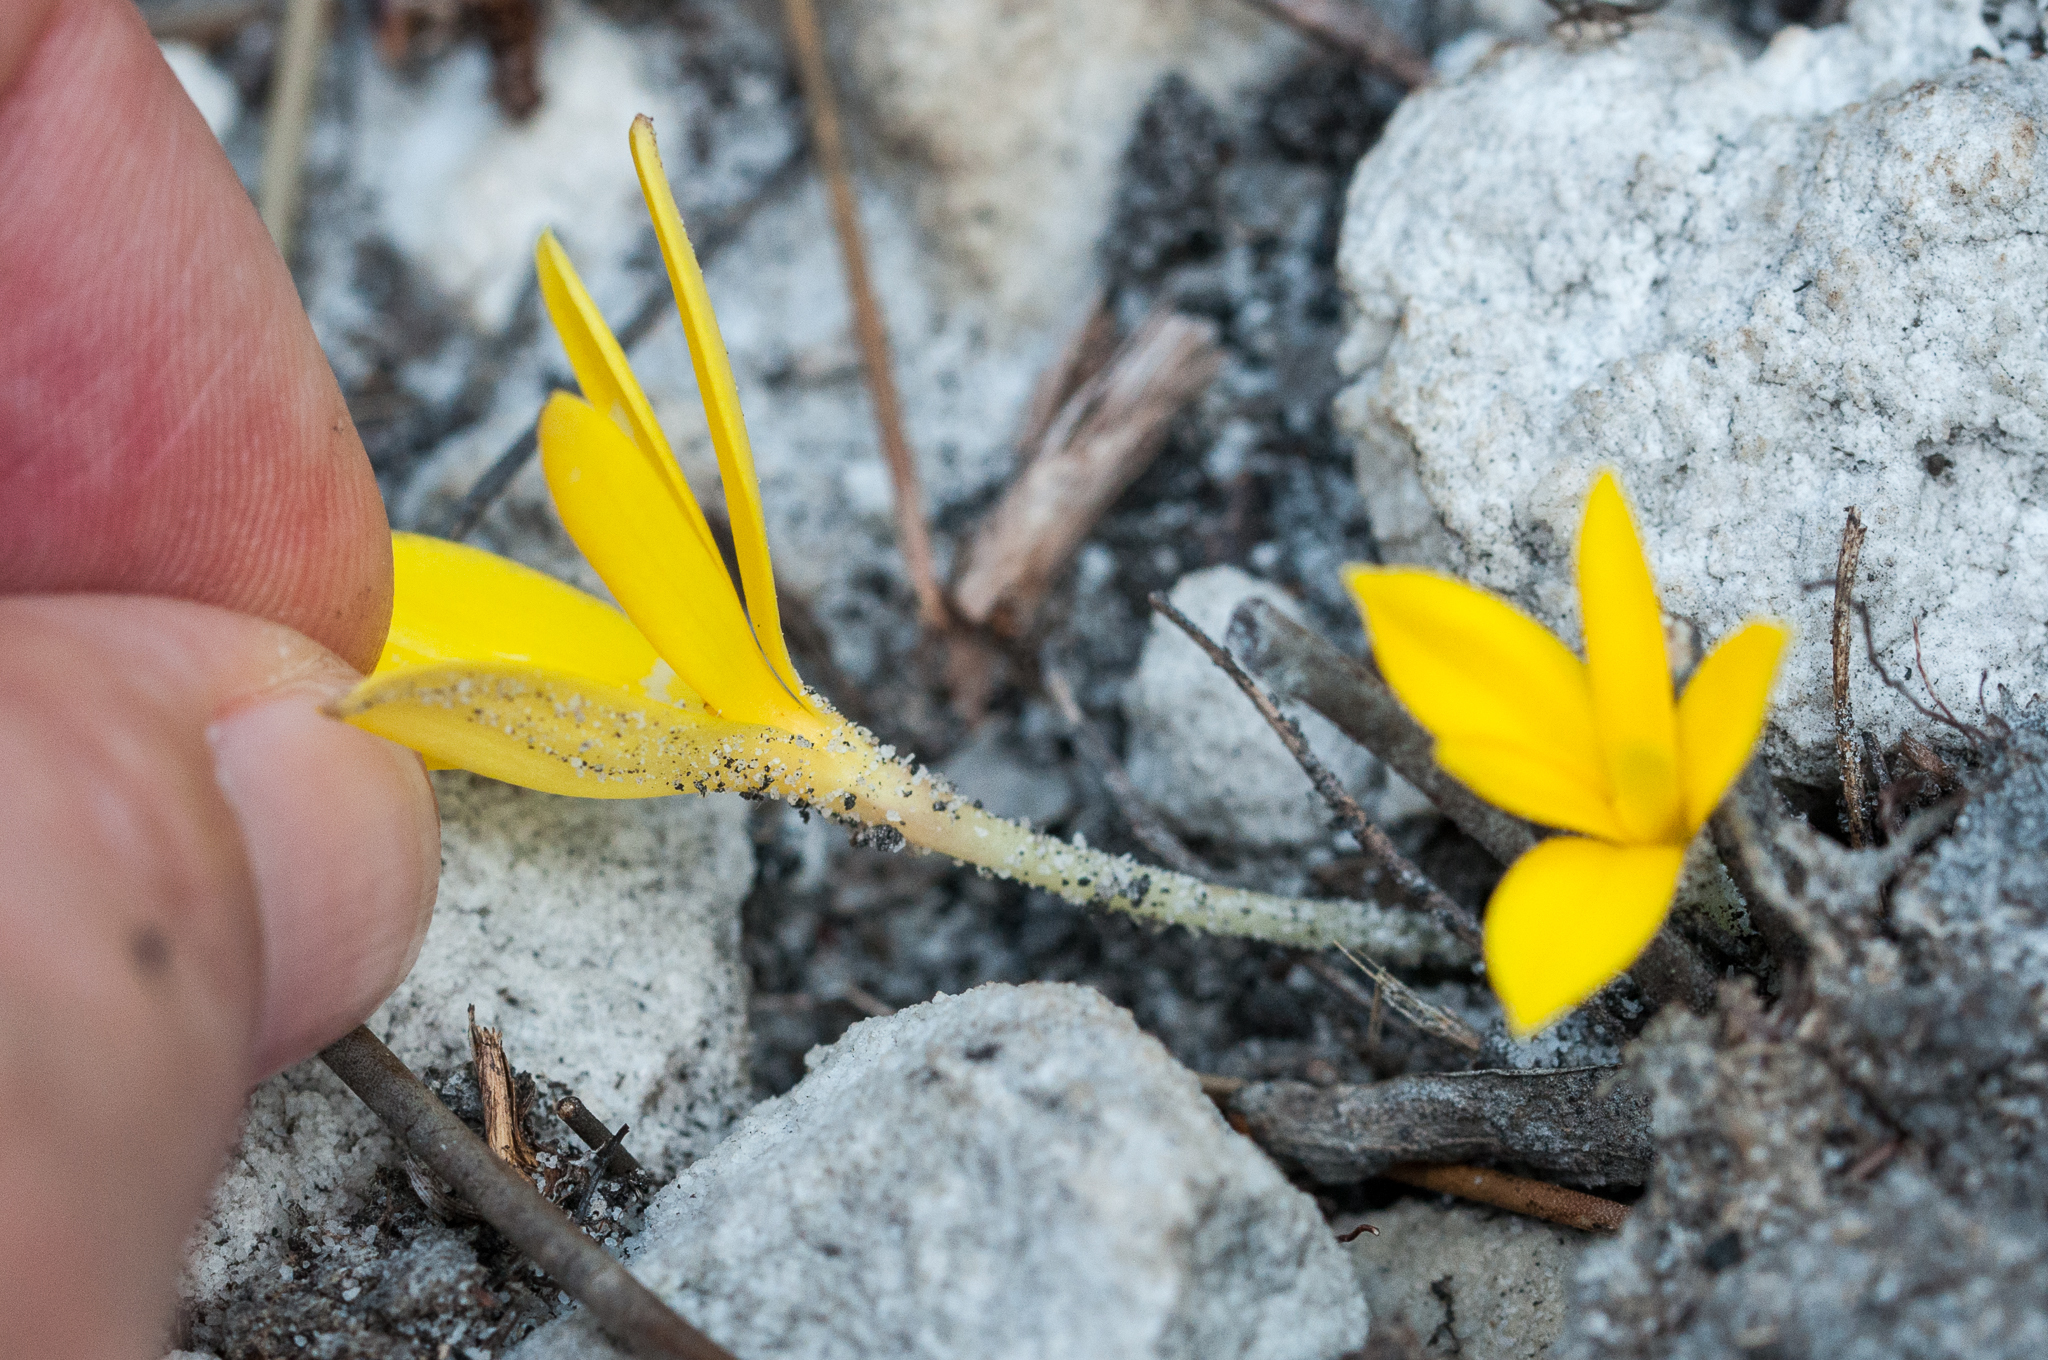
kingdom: Plantae
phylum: Tracheophyta
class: Liliopsida
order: Asparagales
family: Hypoxidaceae
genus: Pauridia
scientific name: Pauridia monophylla
